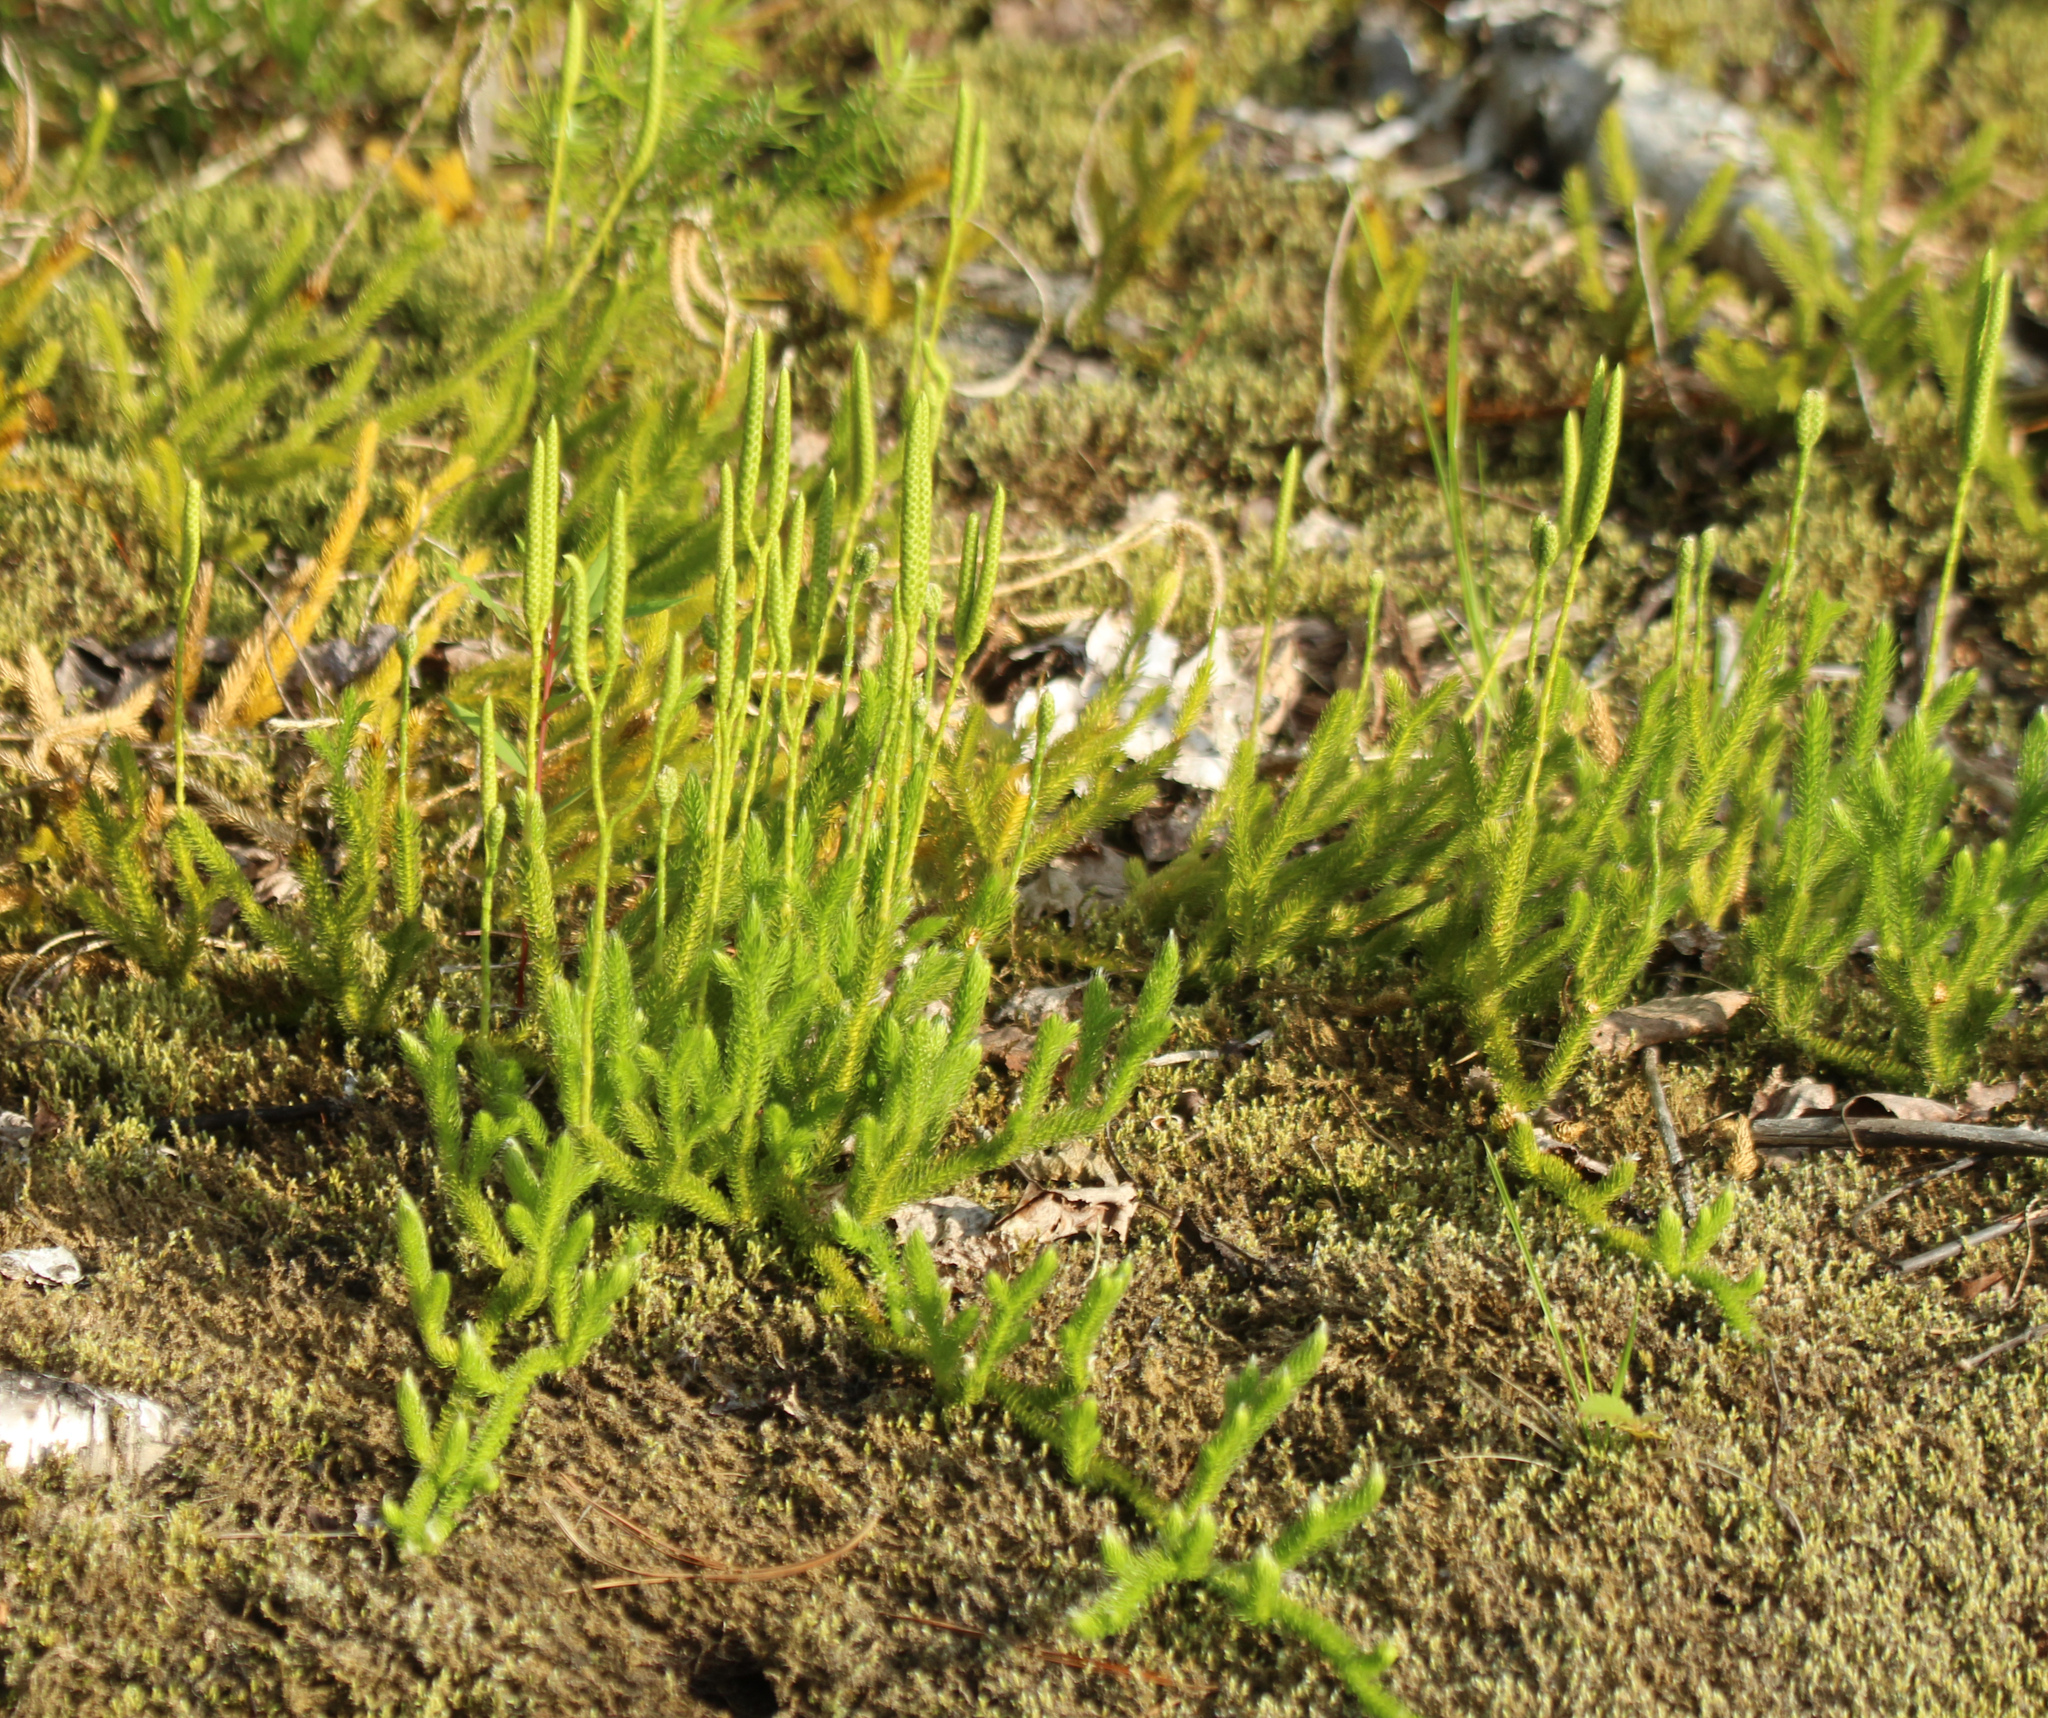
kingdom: Plantae
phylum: Tracheophyta
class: Lycopodiopsida
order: Lycopodiales
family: Lycopodiaceae
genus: Lycopodium
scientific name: Lycopodium clavatum
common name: Stag's-horn clubmoss
